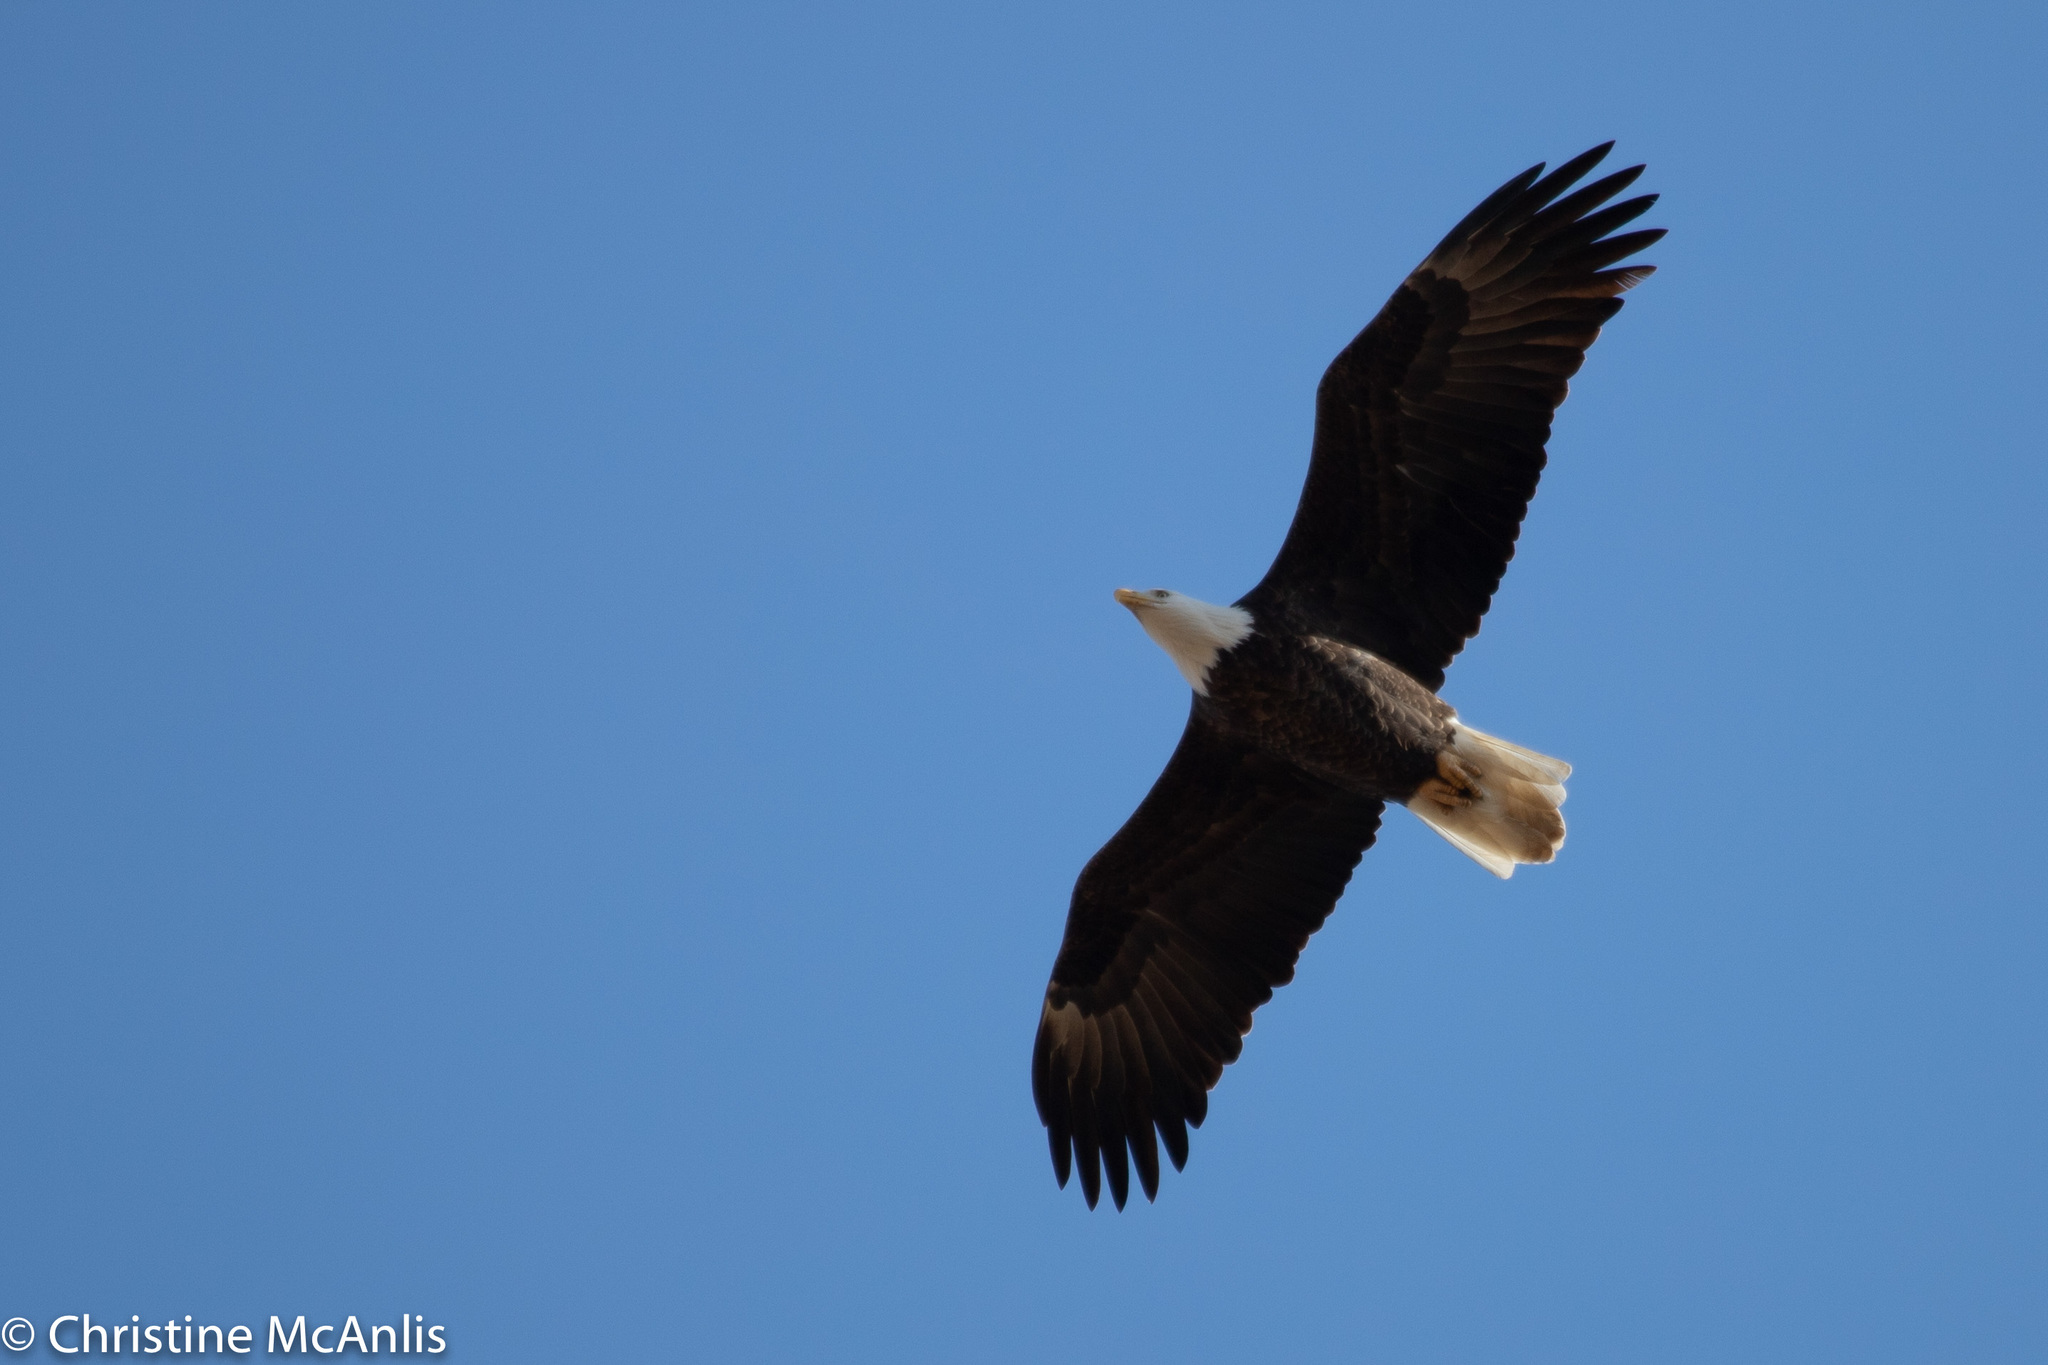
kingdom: Animalia
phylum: Chordata
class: Aves
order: Accipitriformes
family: Accipitridae
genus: Haliaeetus
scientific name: Haliaeetus leucocephalus
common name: Bald eagle
